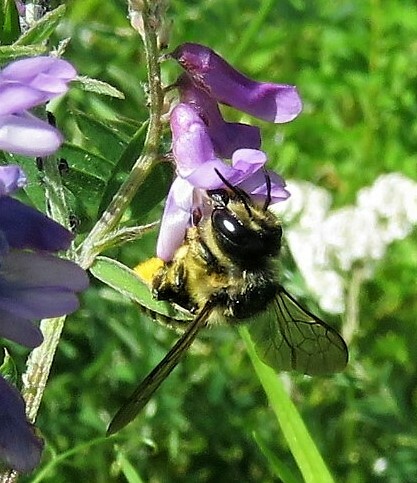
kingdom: Animalia
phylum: Arthropoda
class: Insecta
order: Hymenoptera
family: Megachilidae
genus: Megachile
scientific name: Megachile inermis
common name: Unarmed leafcutter bee
